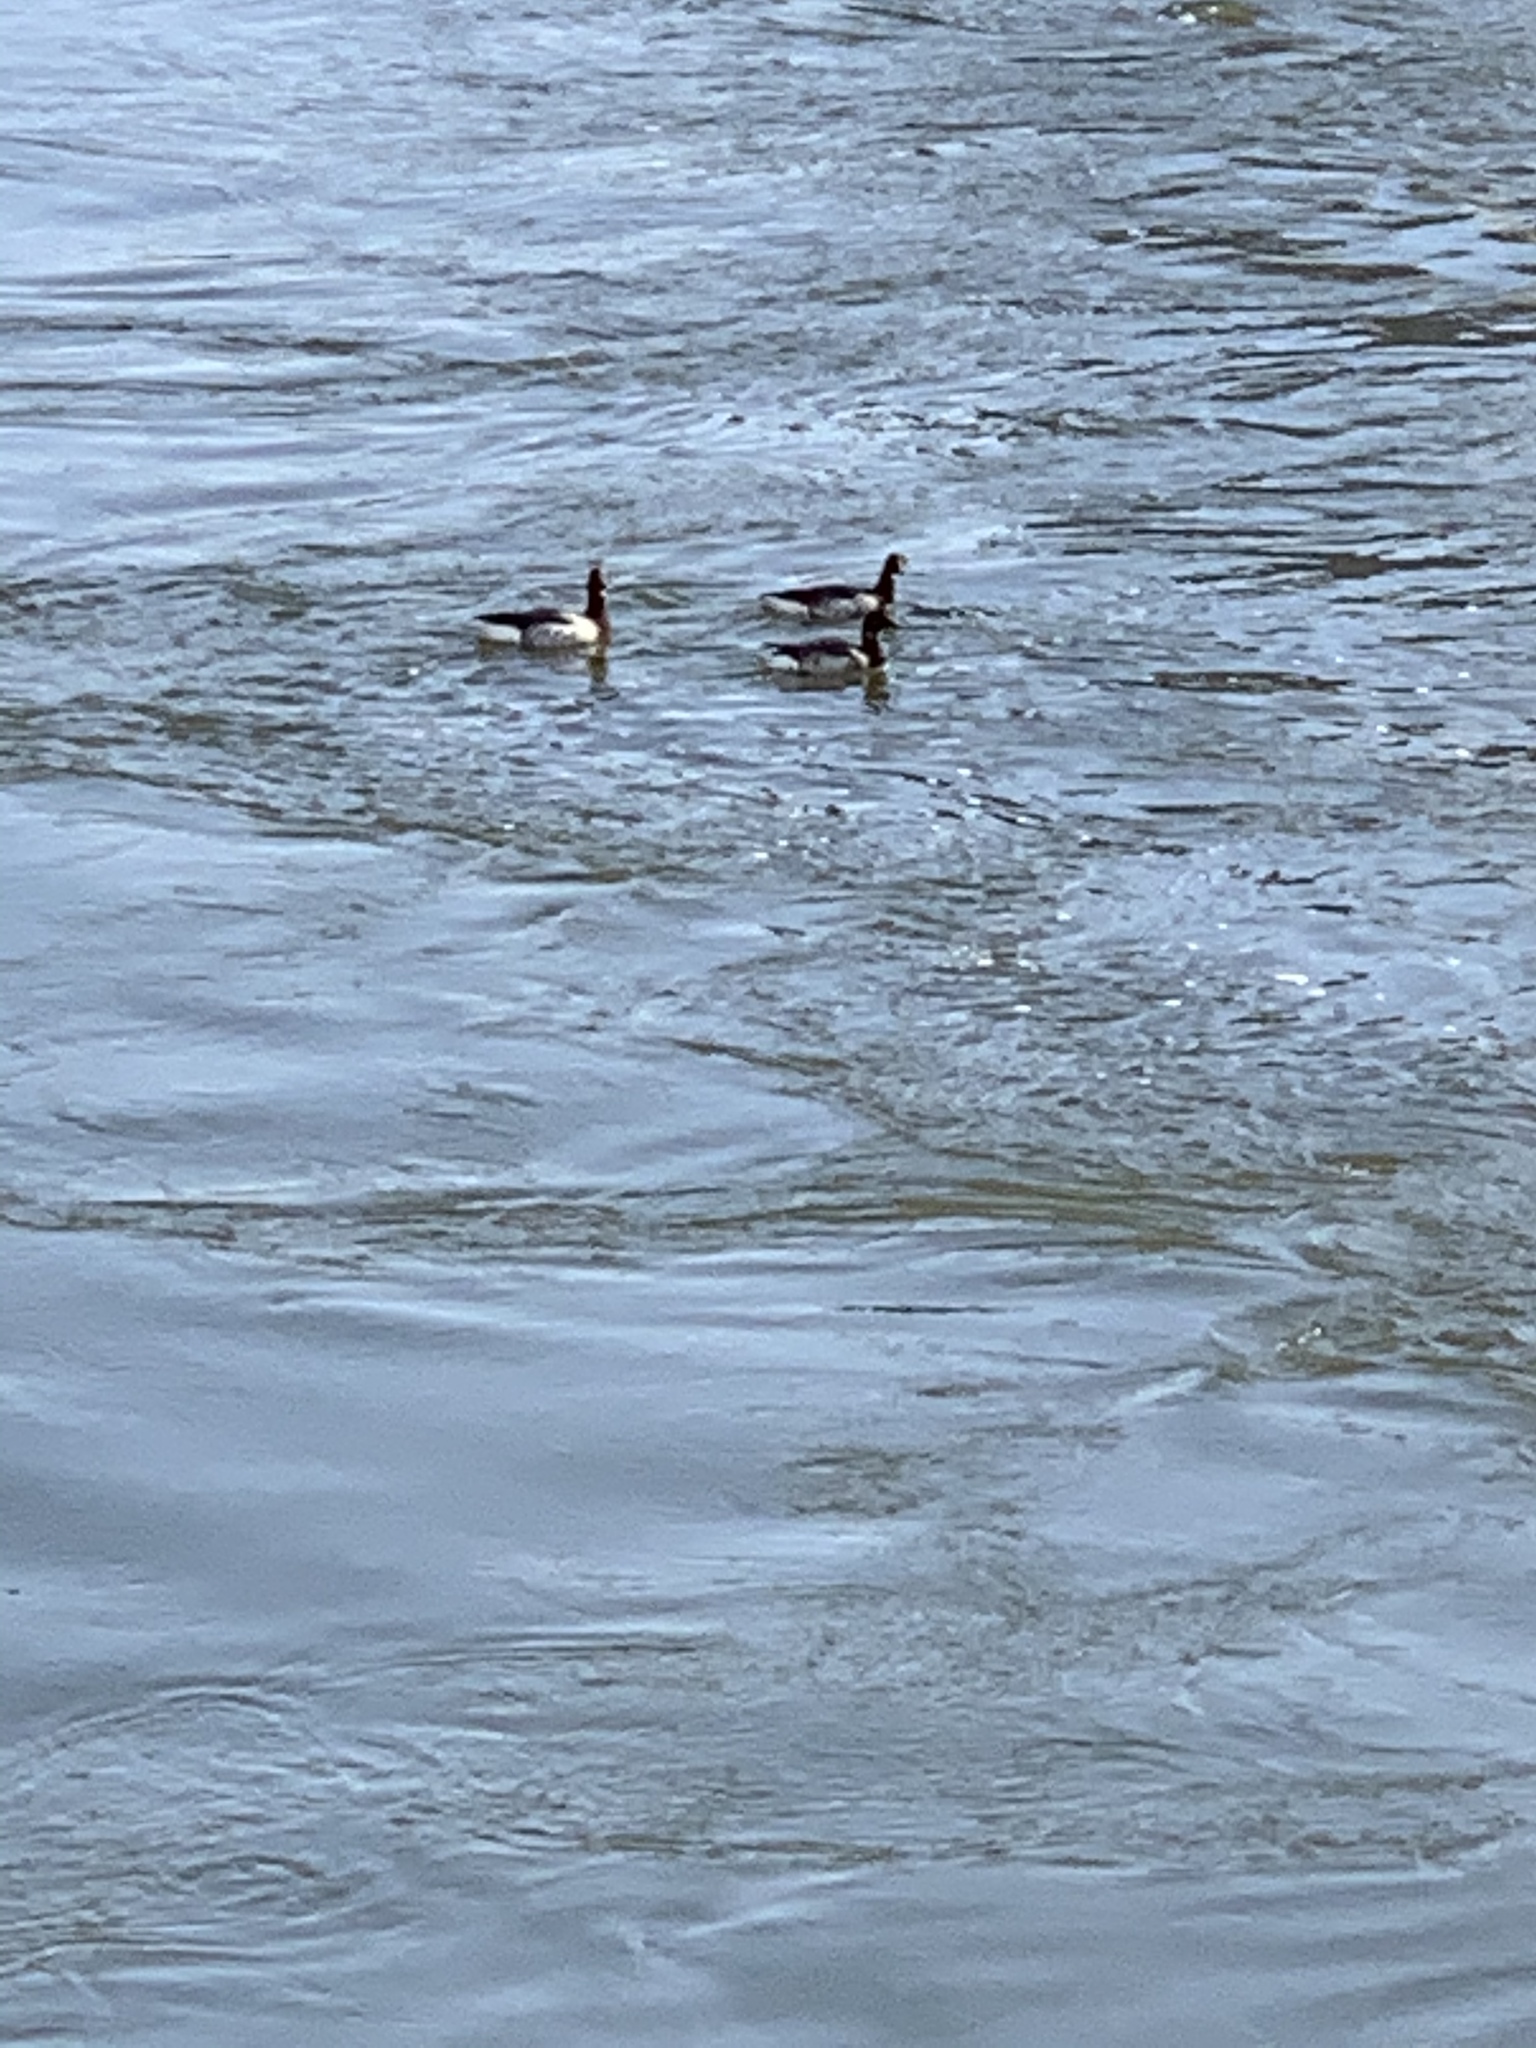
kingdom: Animalia
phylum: Chordata
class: Aves
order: Anseriformes
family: Anatidae
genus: Branta
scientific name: Branta bernicla
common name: Brant goose
